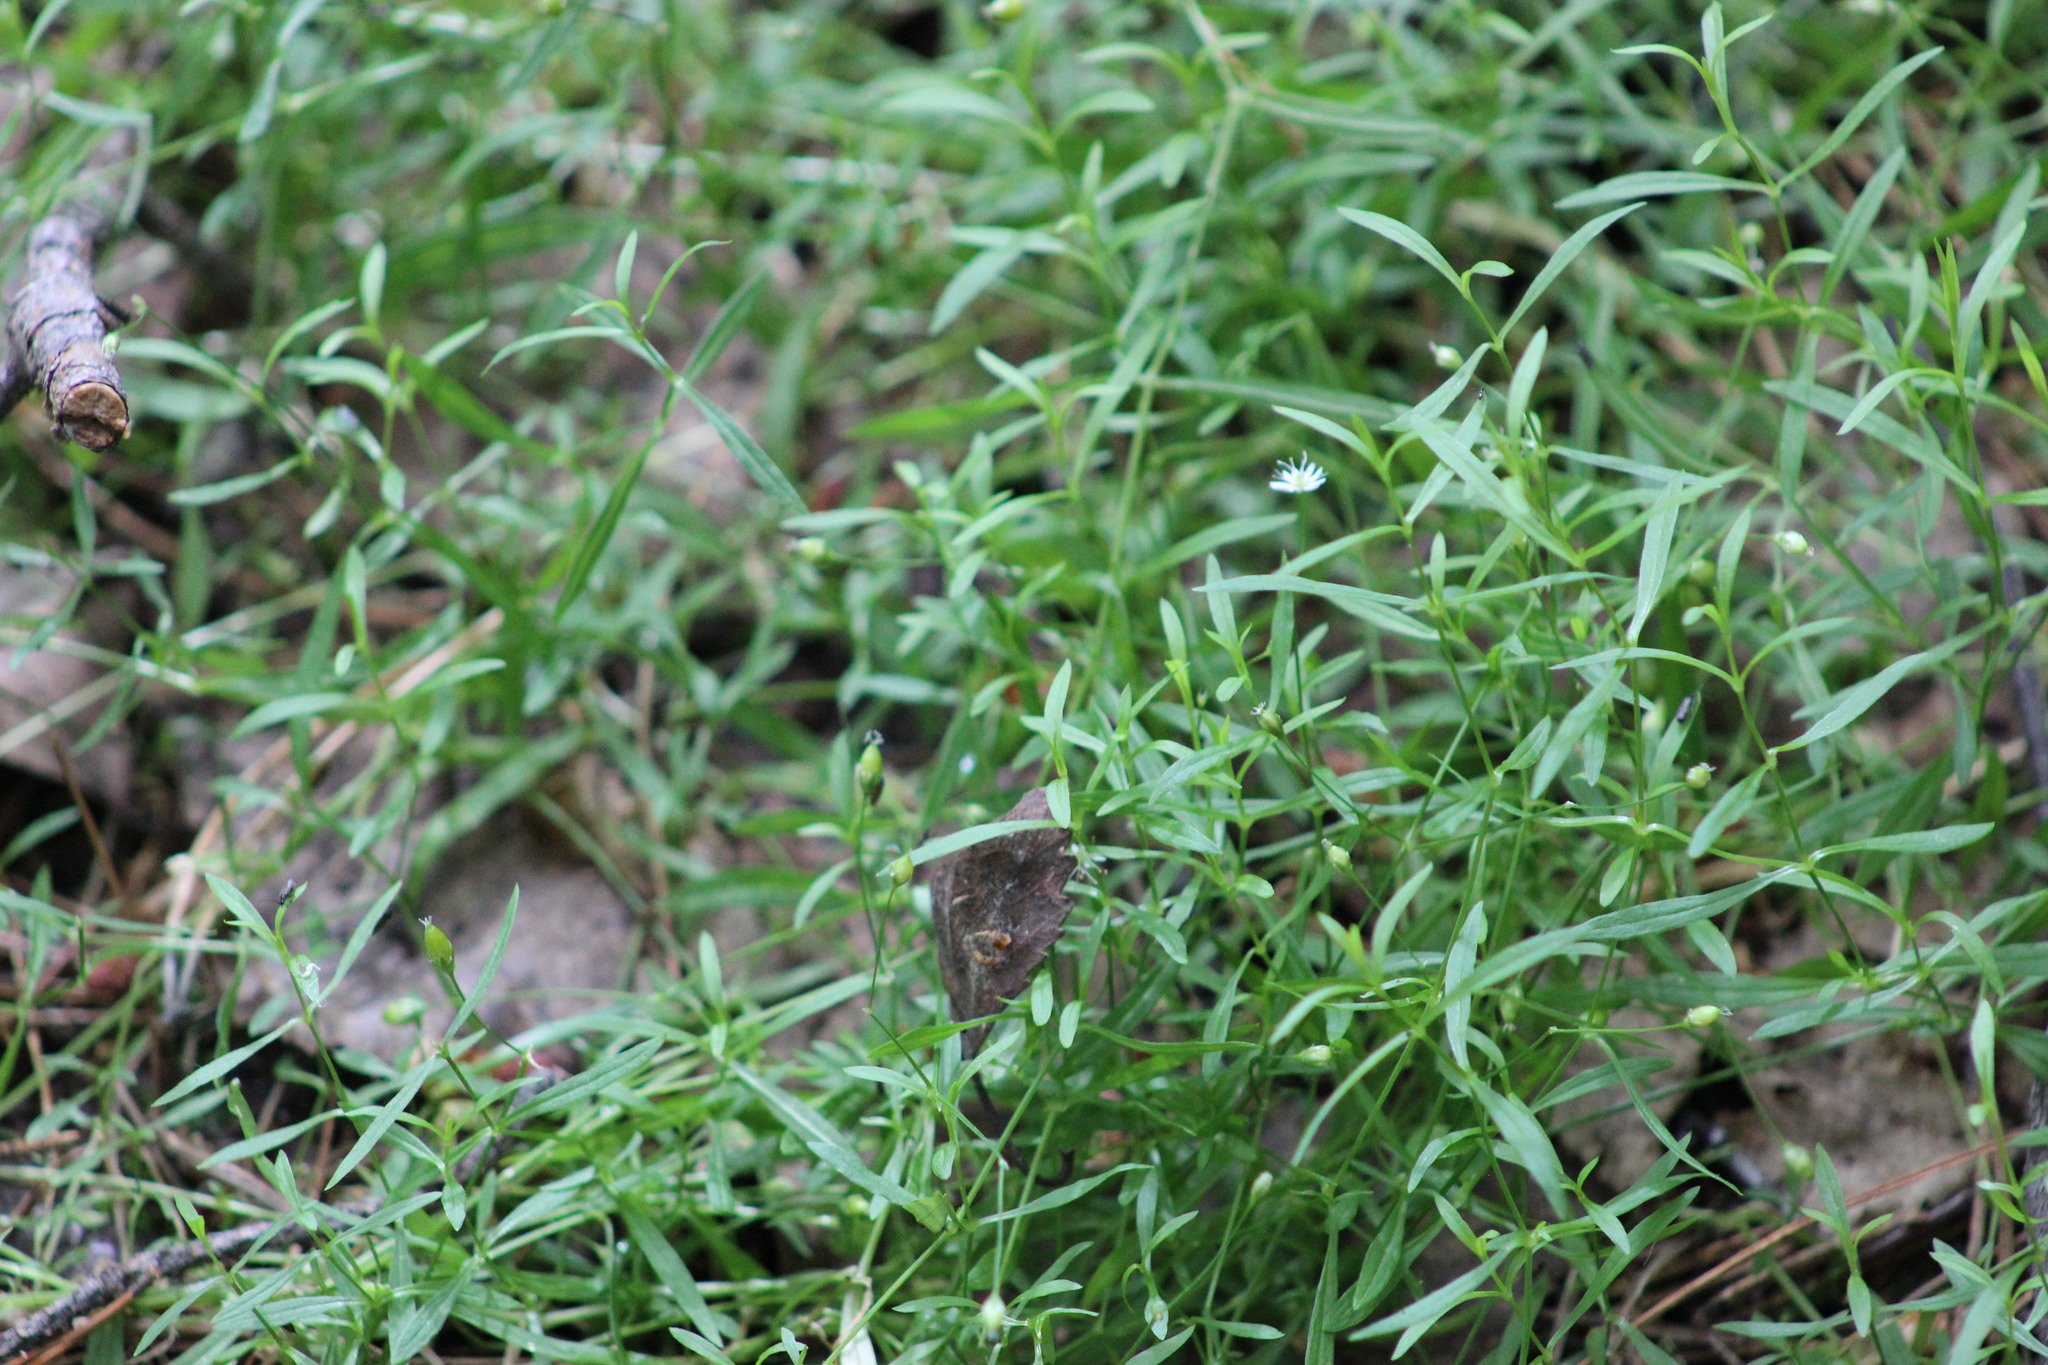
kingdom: Plantae
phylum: Tracheophyta
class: Magnoliopsida
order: Caryophyllales
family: Caryophyllaceae
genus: Stellaria
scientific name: Stellaria longifolia
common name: Long-leaved chickweed
